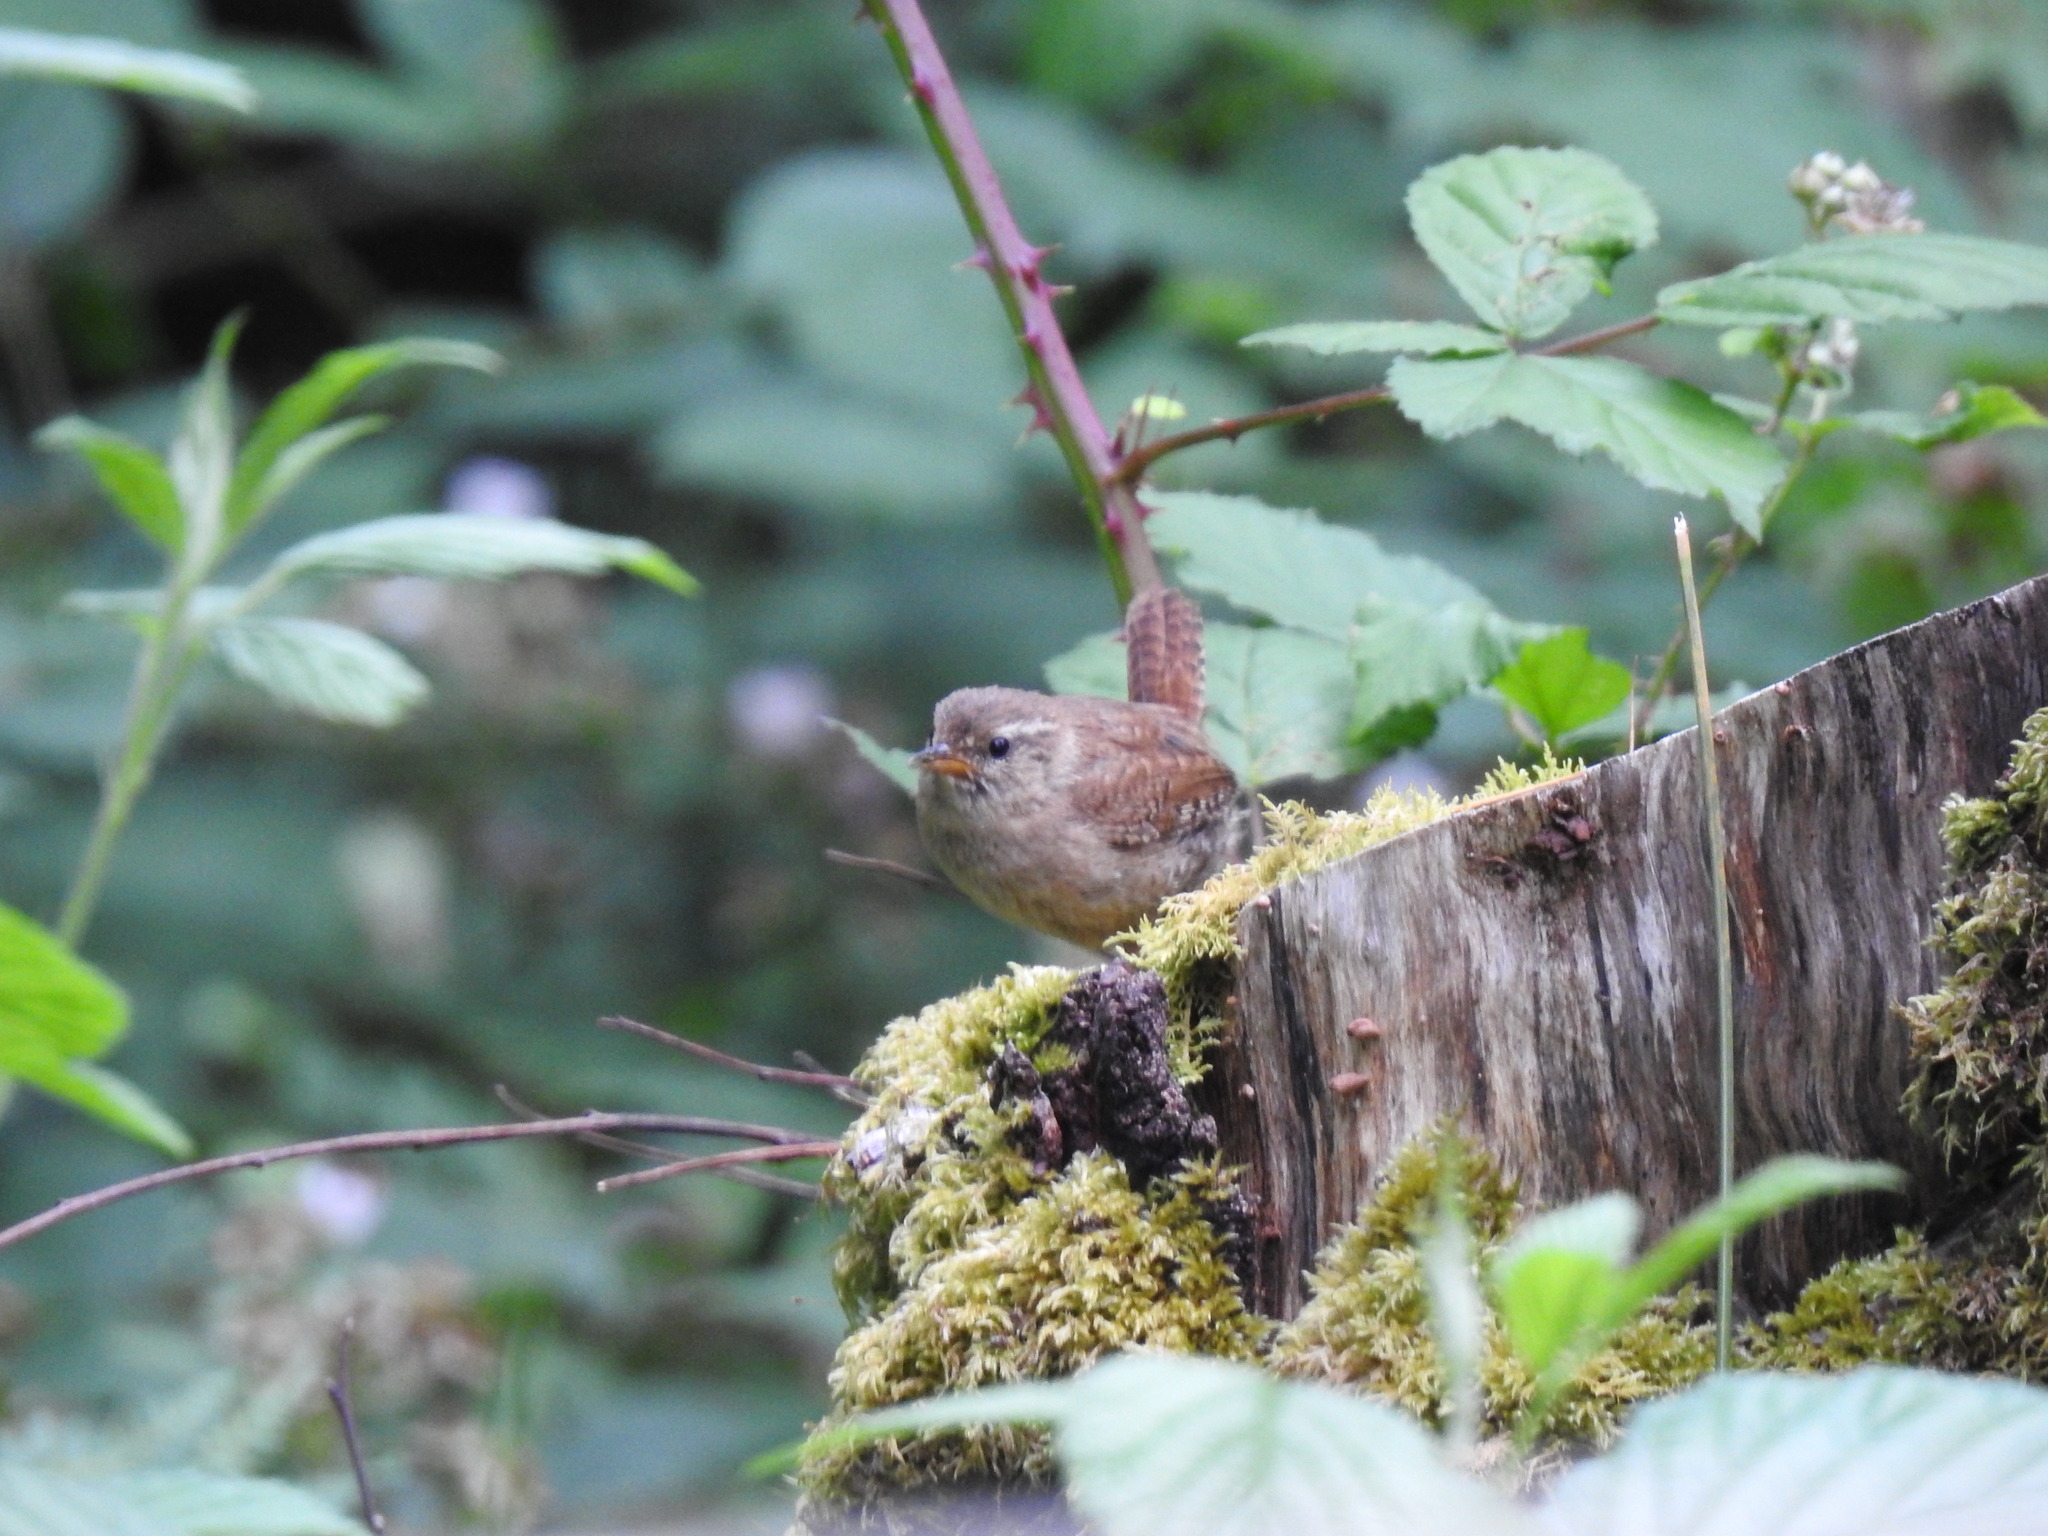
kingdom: Animalia
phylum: Chordata
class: Aves
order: Passeriformes
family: Troglodytidae
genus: Troglodytes
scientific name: Troglodytes troglodytes
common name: Eurasian wren
